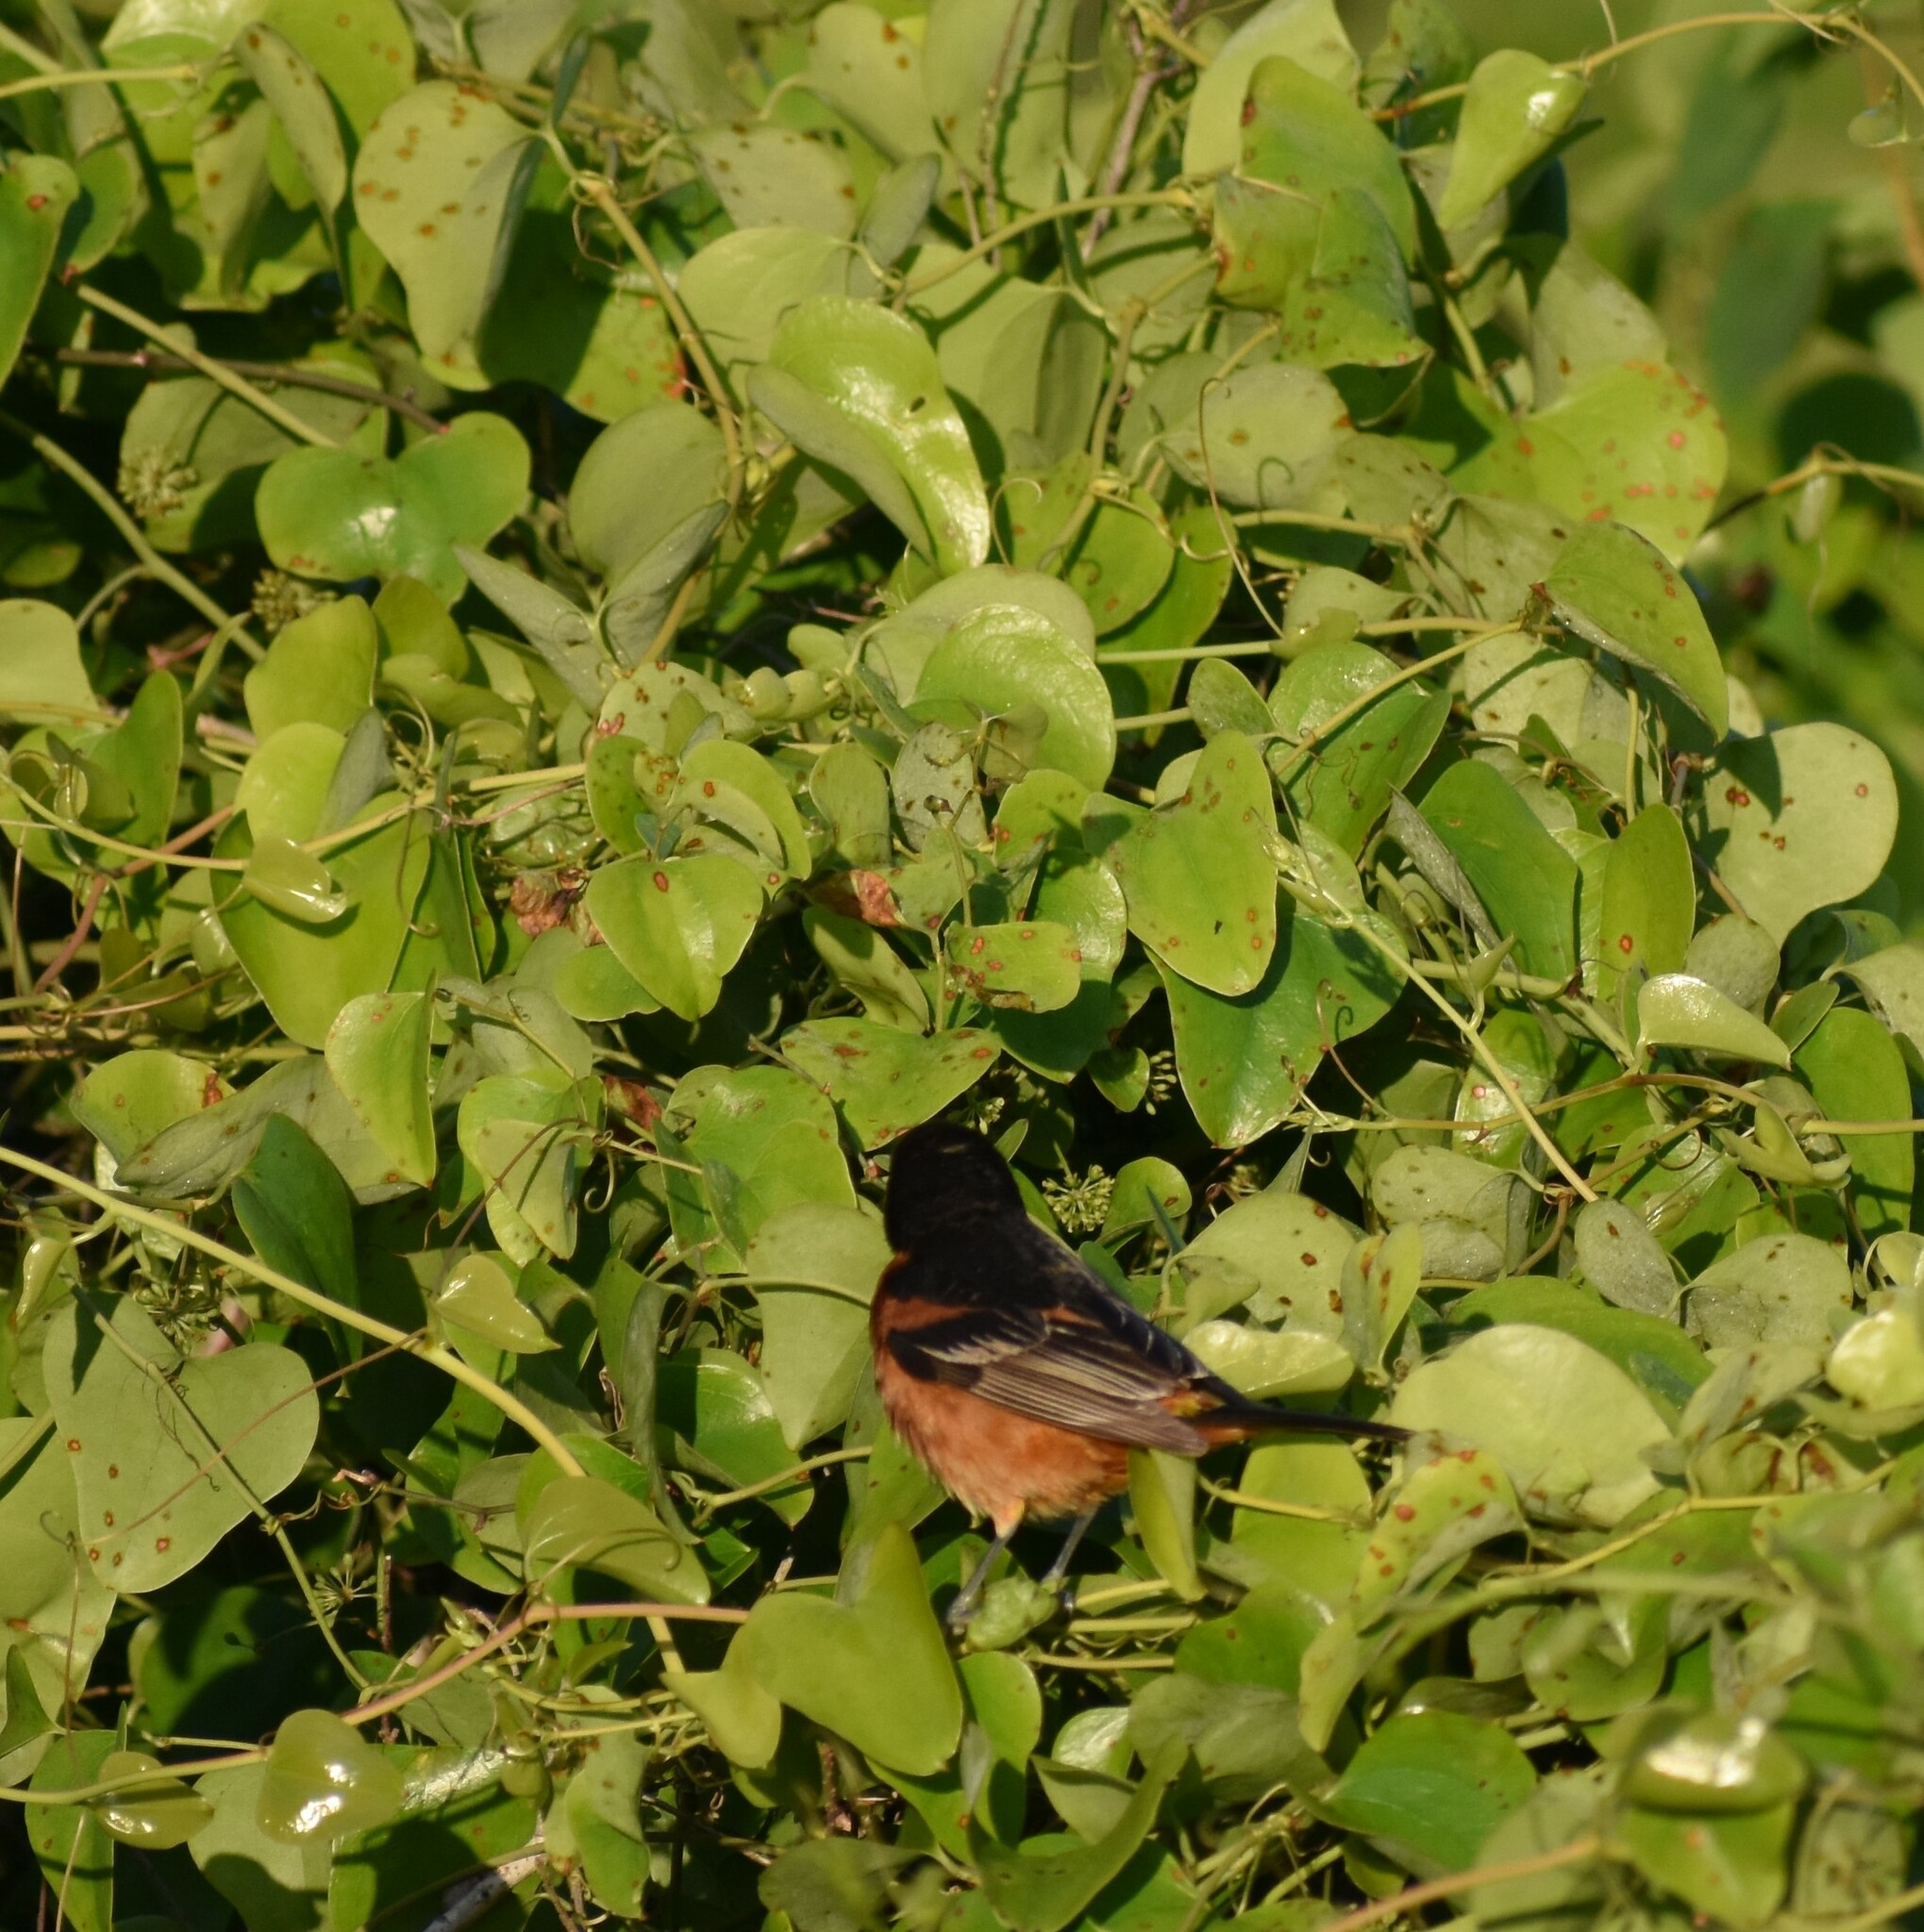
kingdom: Animalia
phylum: Chordata
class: Aves
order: Passeriformes
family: Icteridae
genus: Icterus
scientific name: Icterus spurius
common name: Orchard oriole
